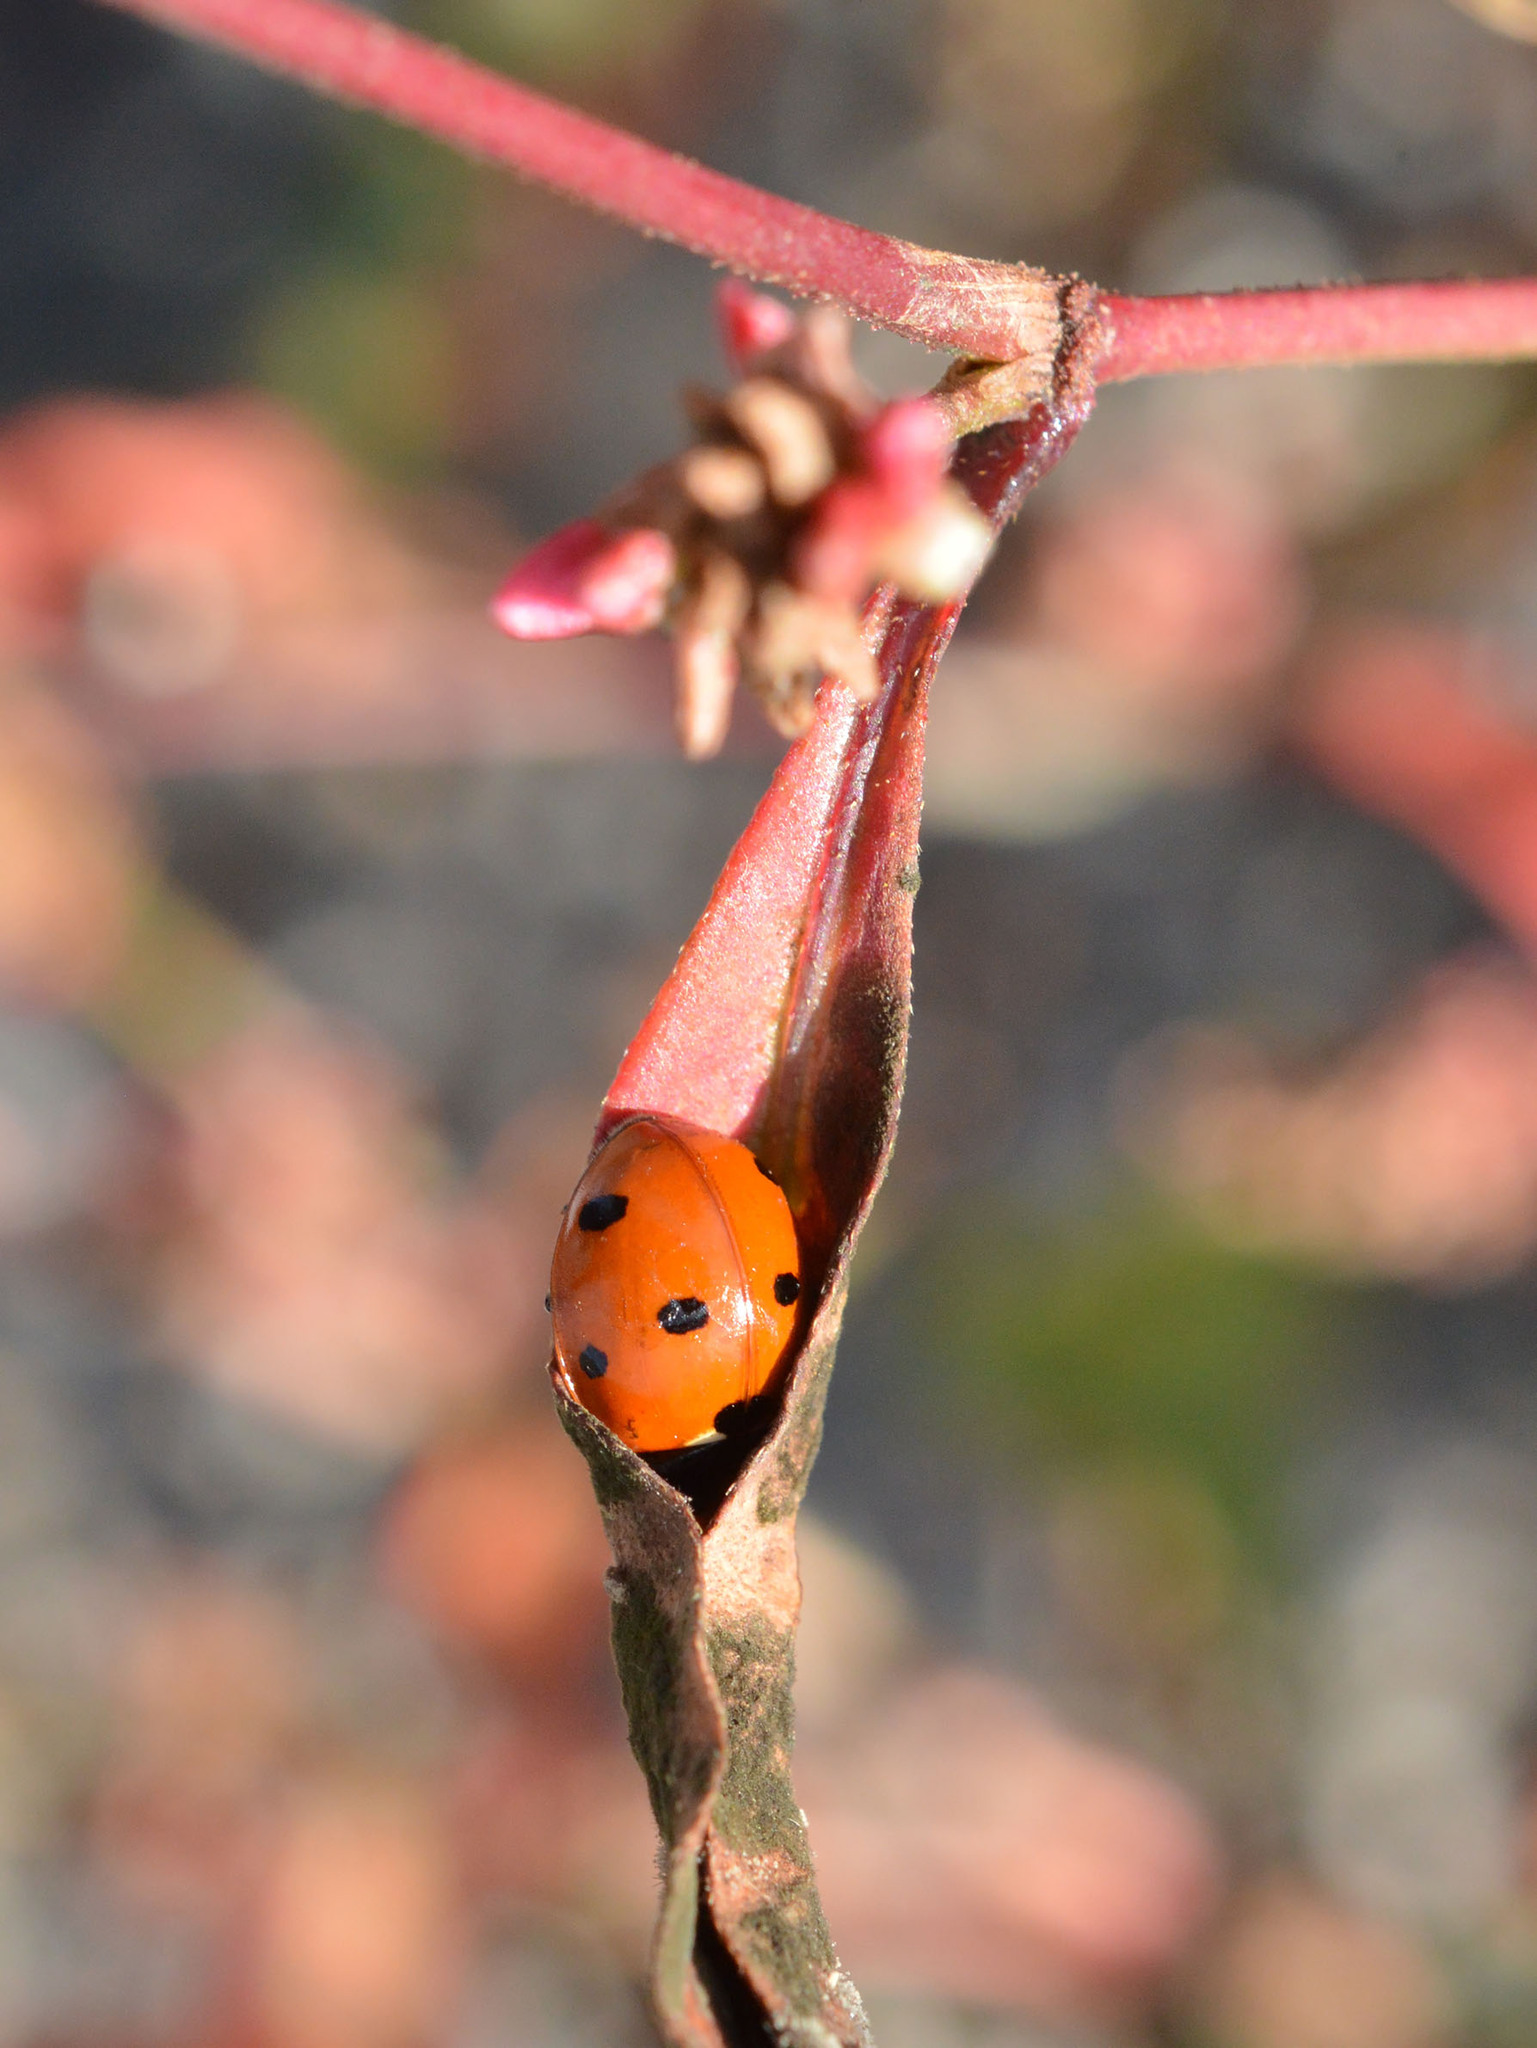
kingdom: Animalia
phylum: Arthropoda
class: Insecta
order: Coleoptera
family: Coccinellidae
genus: Coccinella
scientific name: Coccinella septempunctata
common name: Sevenspotted lady beetle
